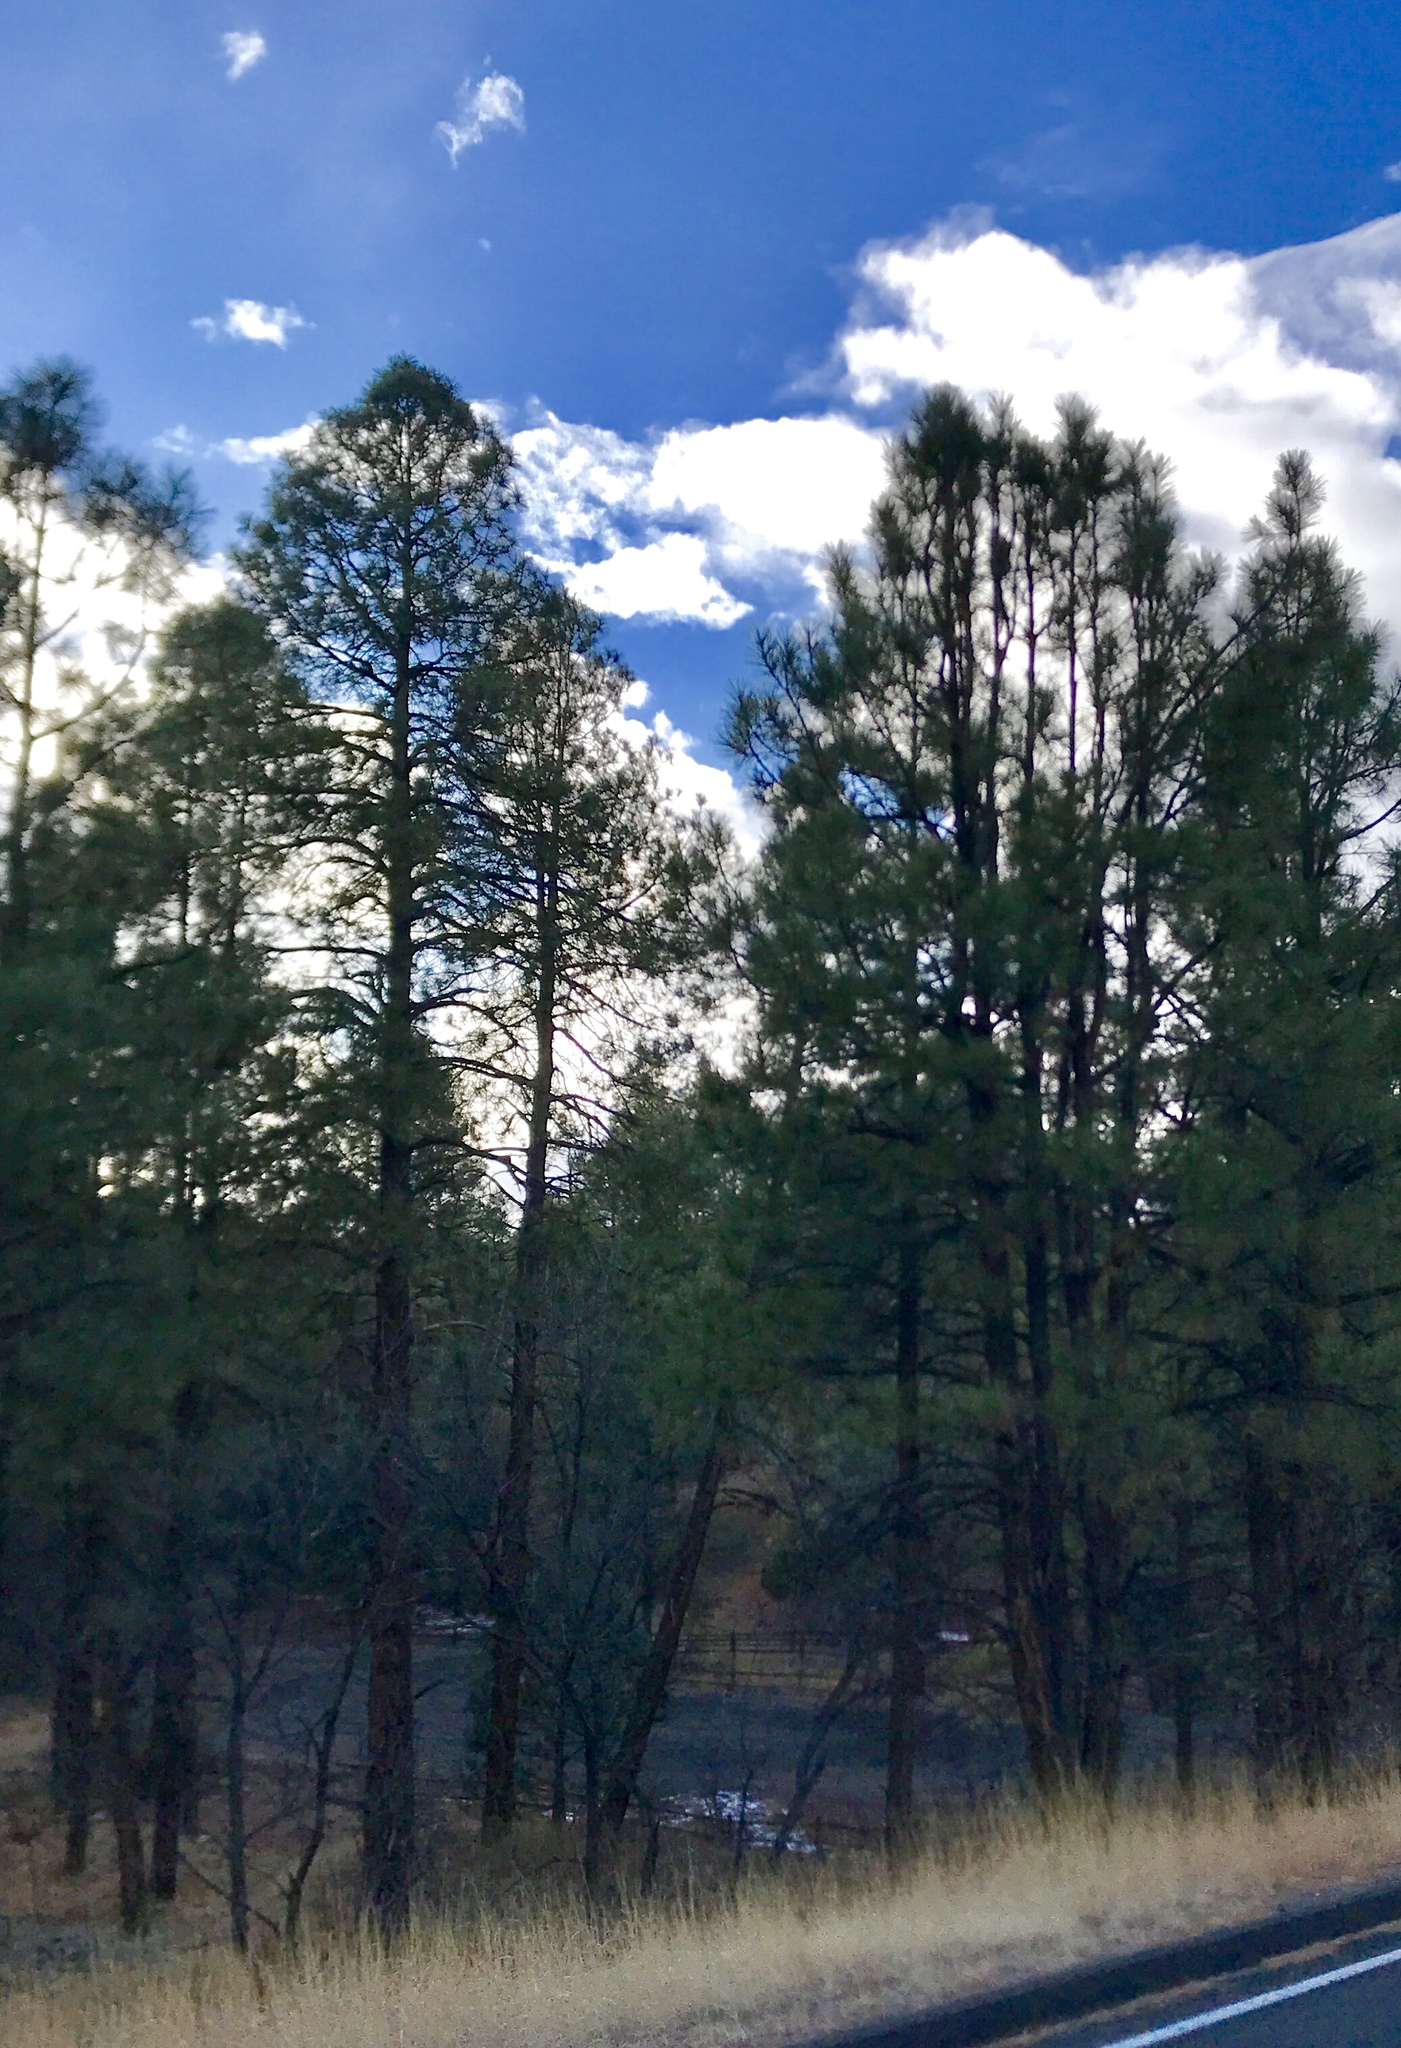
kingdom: Plantae
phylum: Tracheophyta
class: Pinopsida
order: Pinales
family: Pinaceae
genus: Pinus
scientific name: Pinus ponderosa
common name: Western yellow-pine
